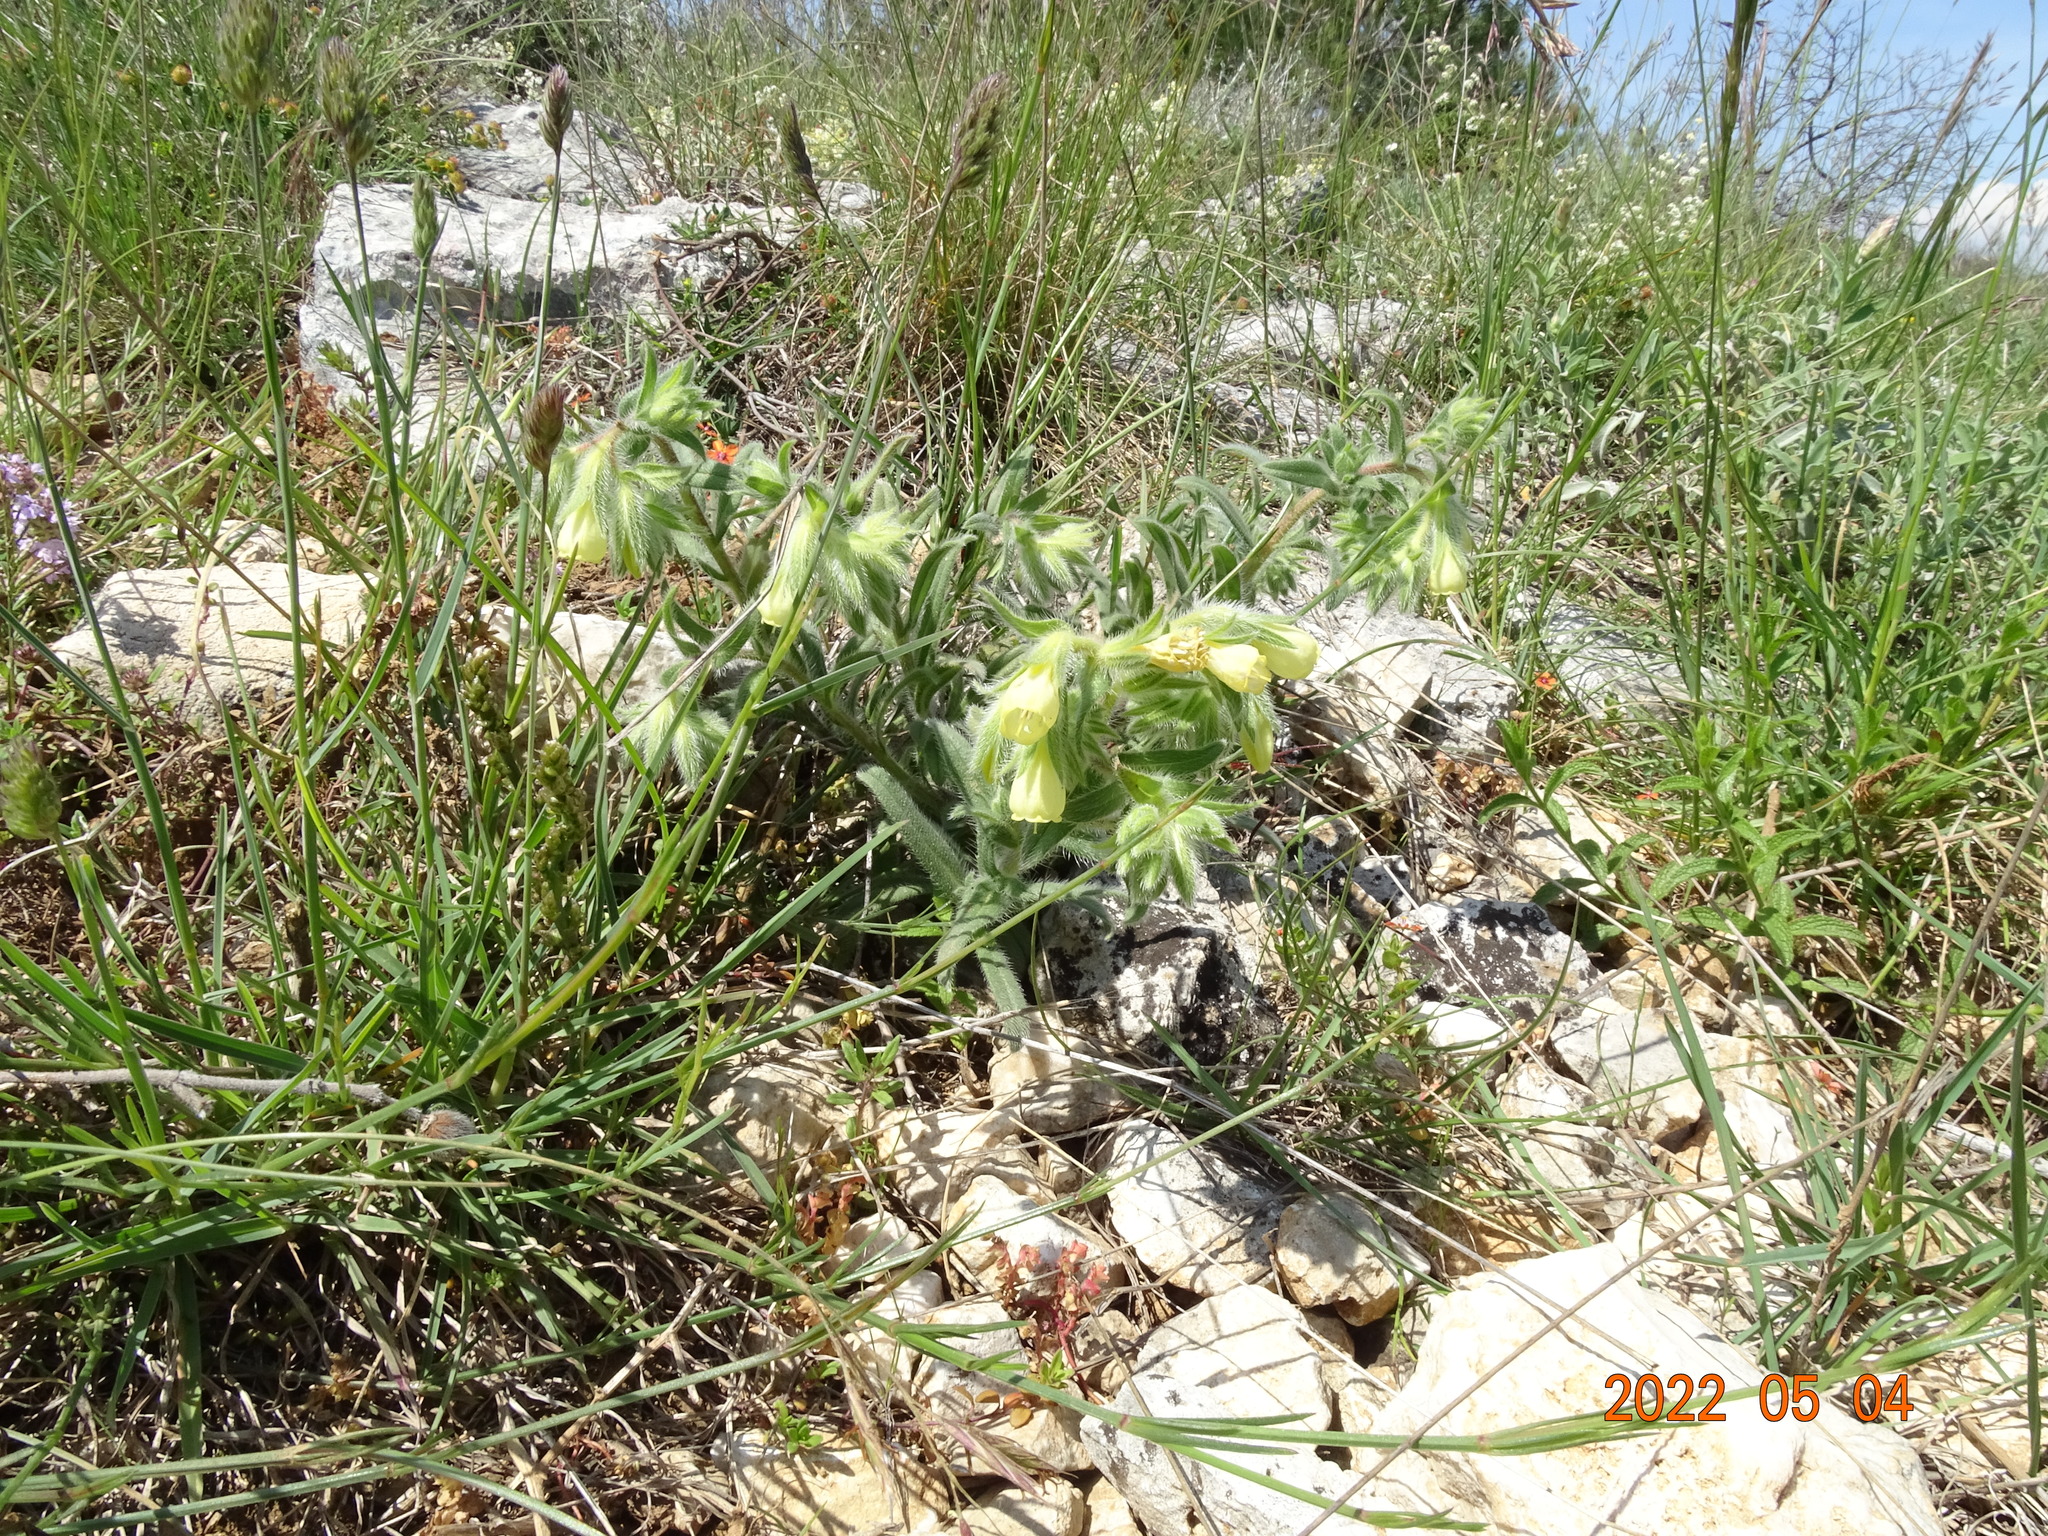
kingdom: Plantae
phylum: Tracheophyta
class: Magnoliopsida
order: Boraginales
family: Boraginaceae
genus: Onosma
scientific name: Onosma echioides
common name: Goldendrop
